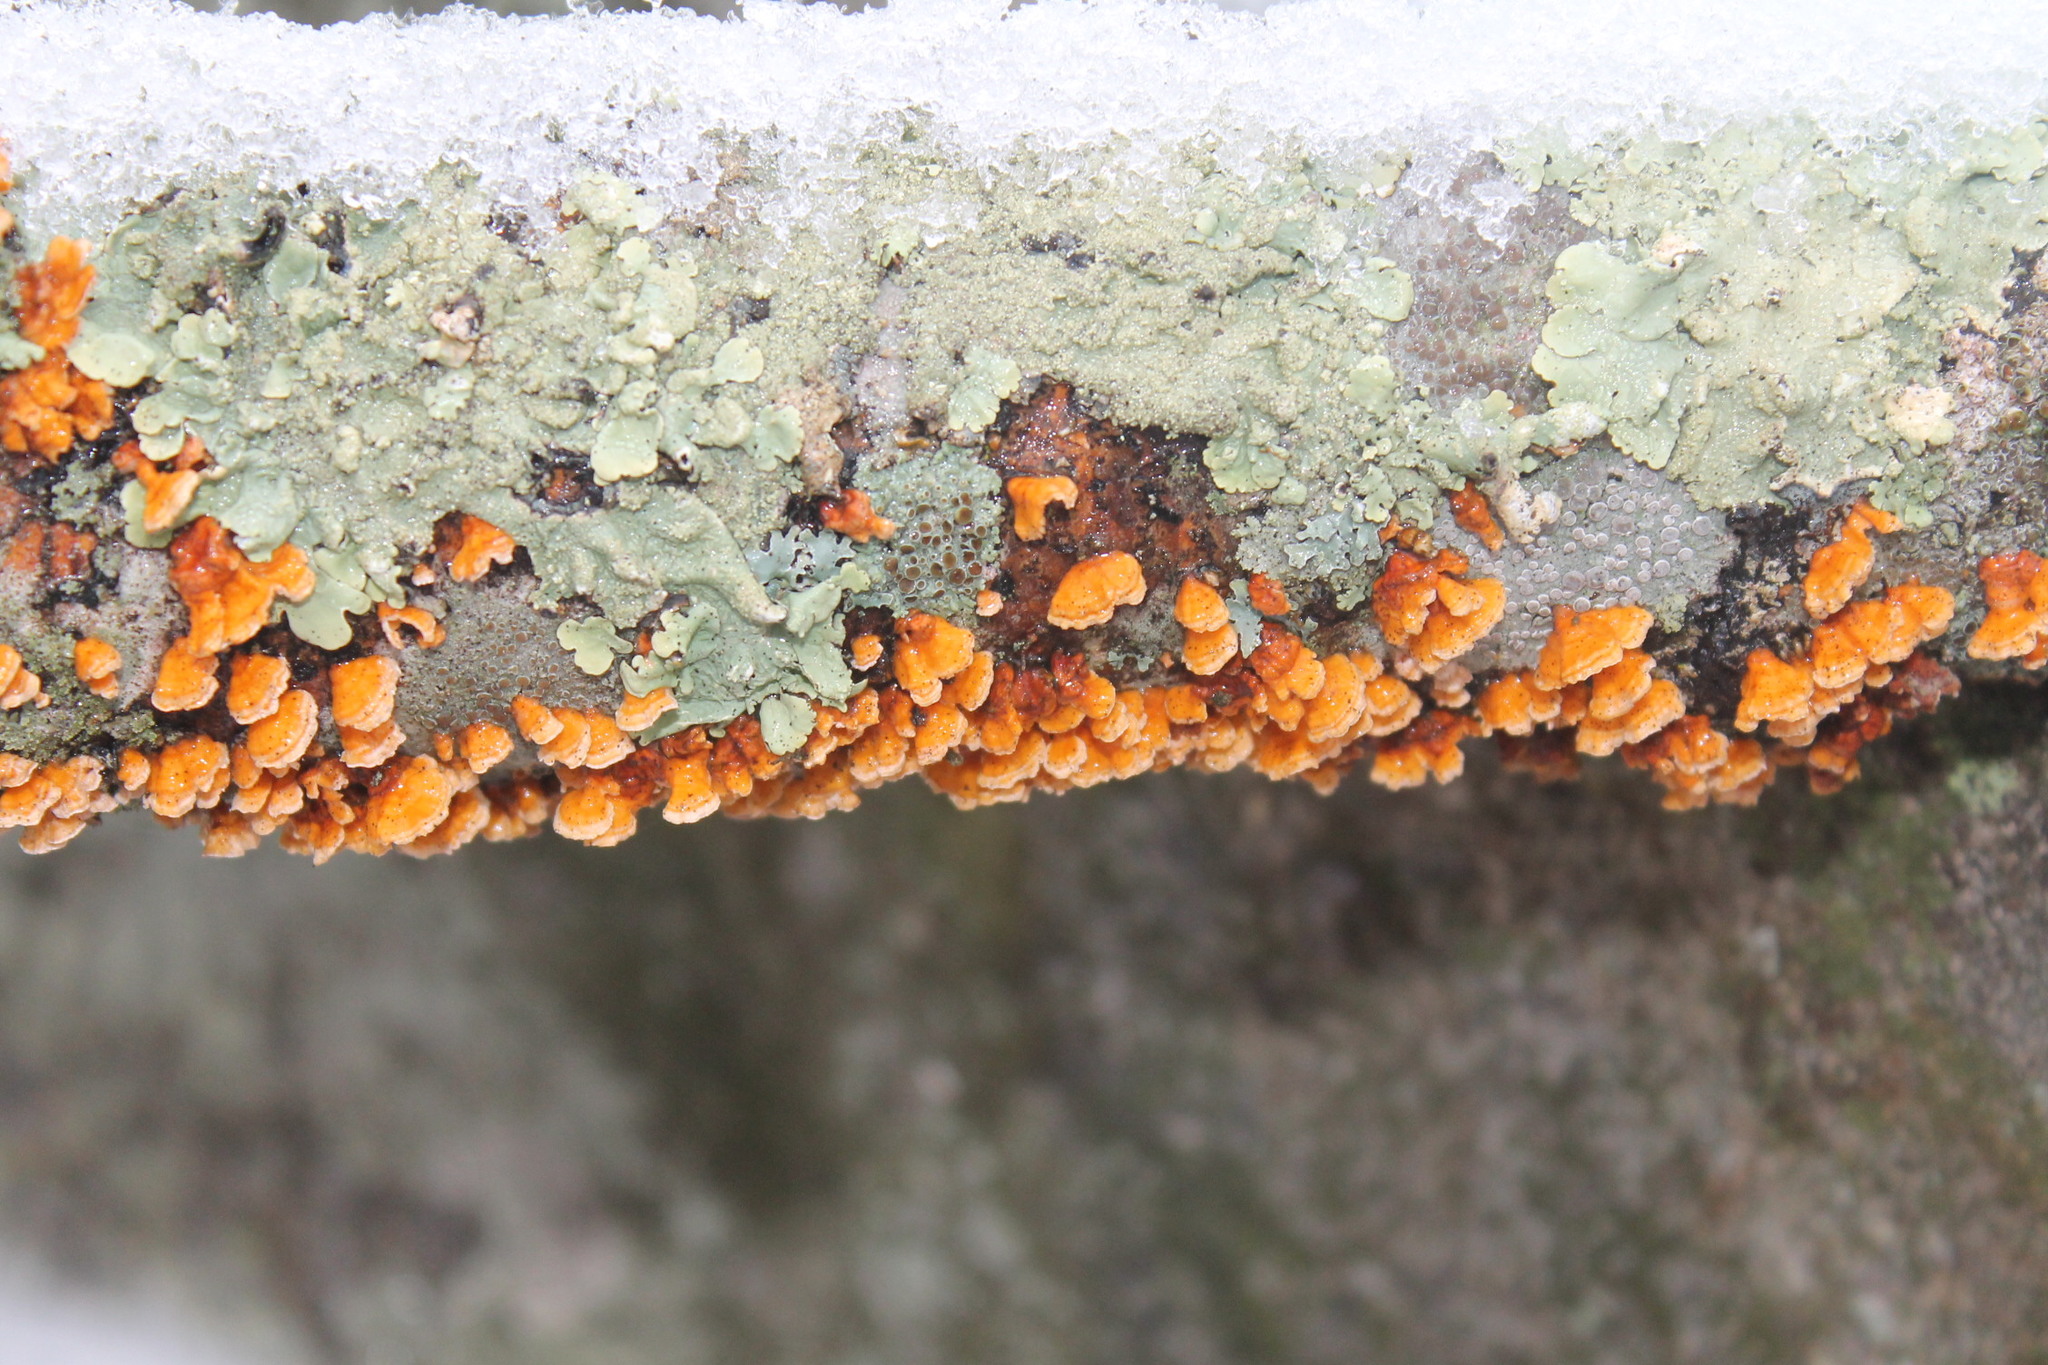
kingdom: Fungi
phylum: Basidiomycota
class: Agaricomycetes
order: Russulales
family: Stereaceae
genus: Stereum
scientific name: Stereum complicatum
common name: Crowded parchment
